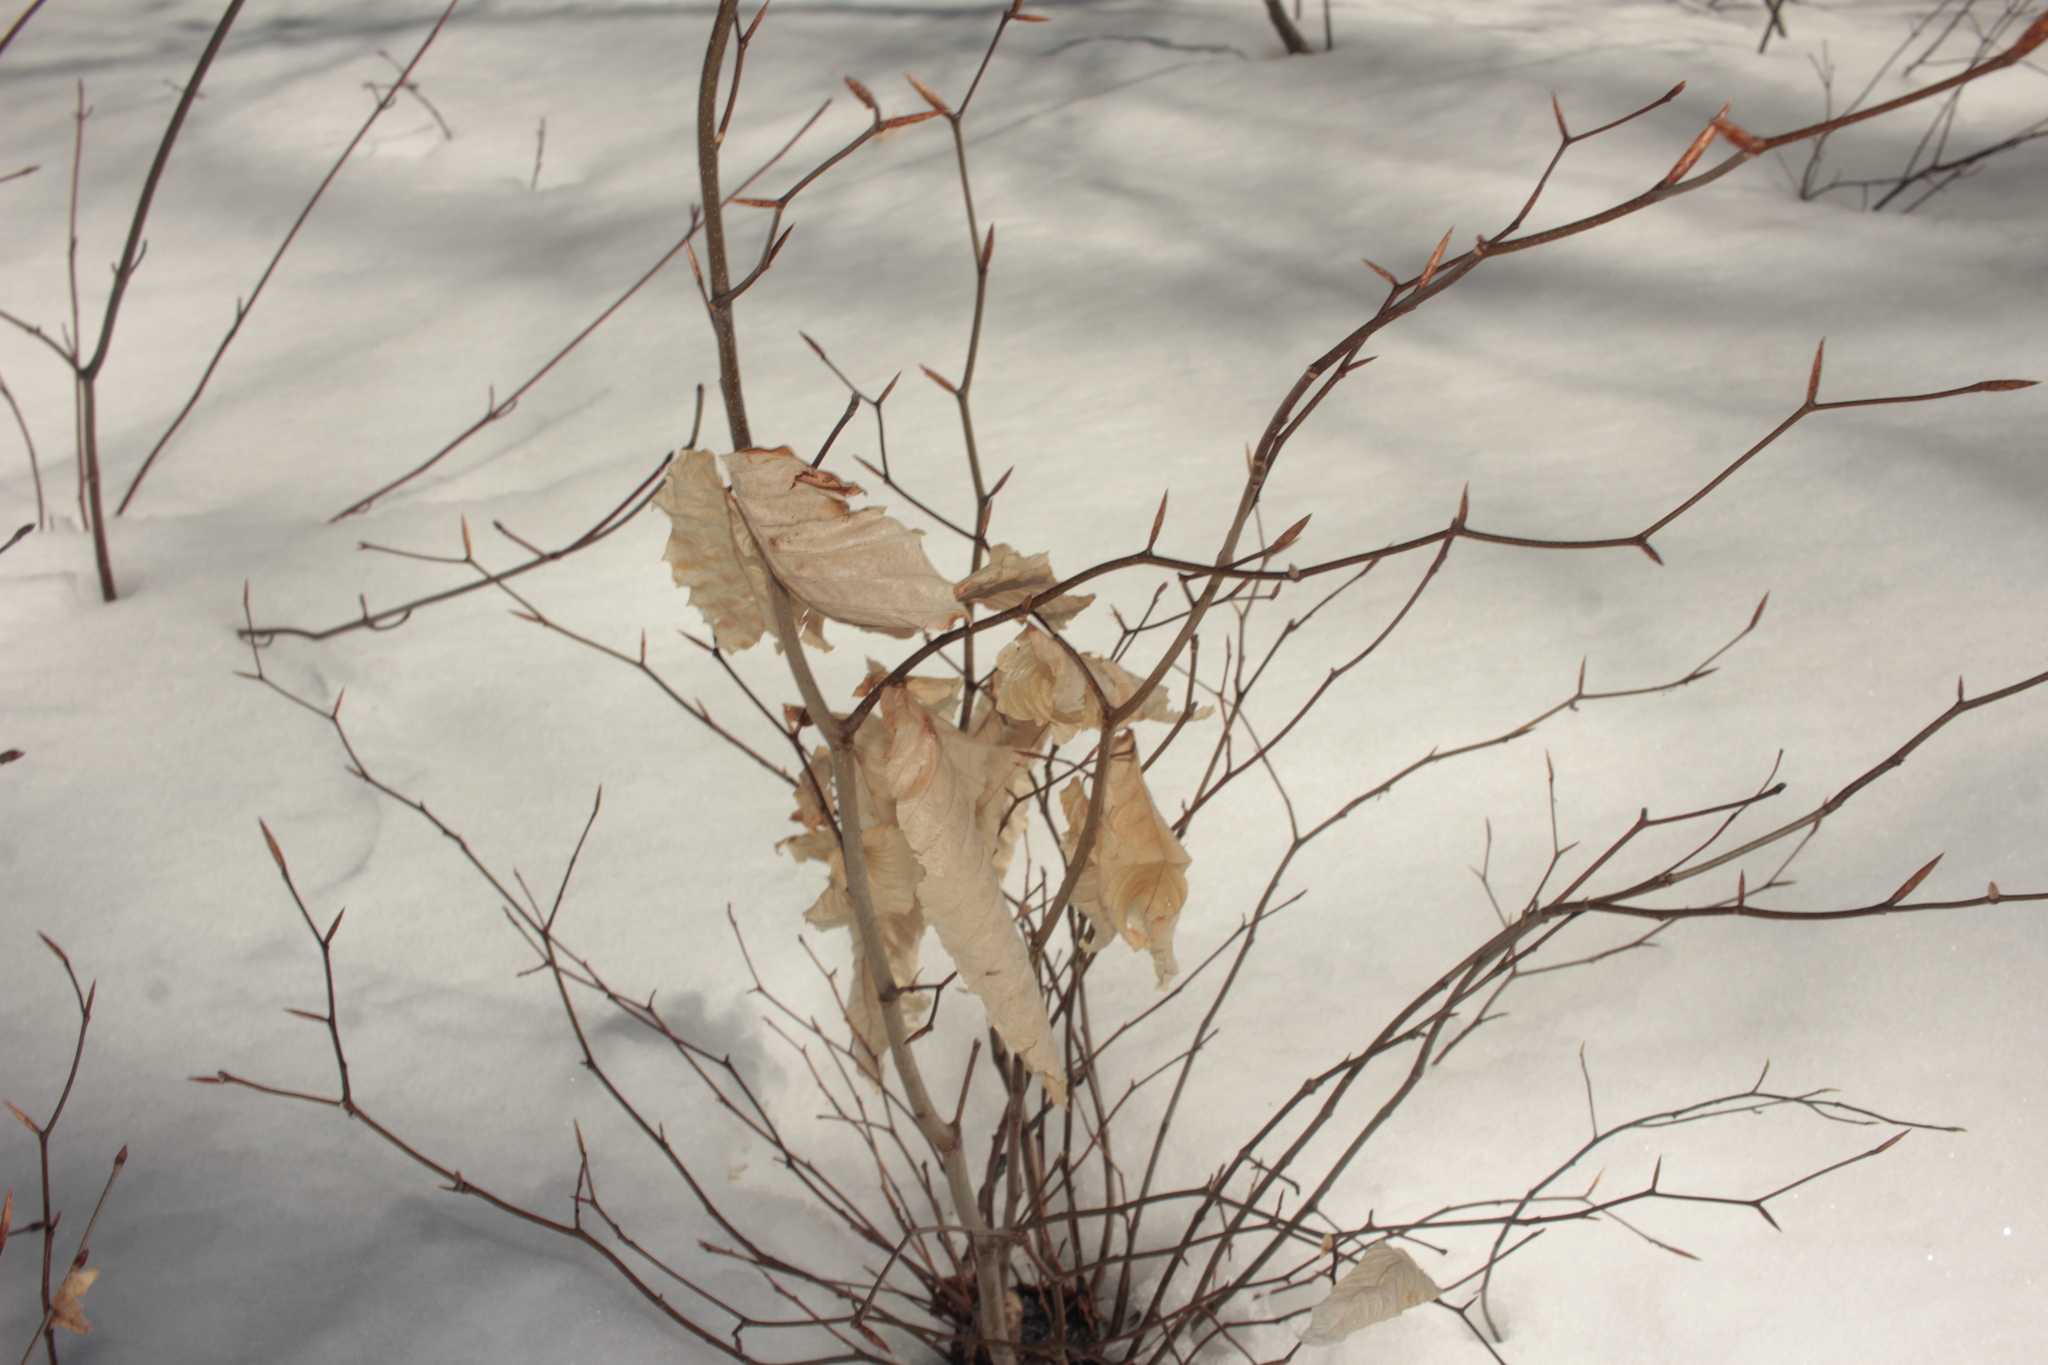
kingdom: Plantae
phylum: Tracheophyta
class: Magnoliopsida
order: Fagales
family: Fagaceae
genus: Fagus
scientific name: Fagus grandifolia
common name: American beech
